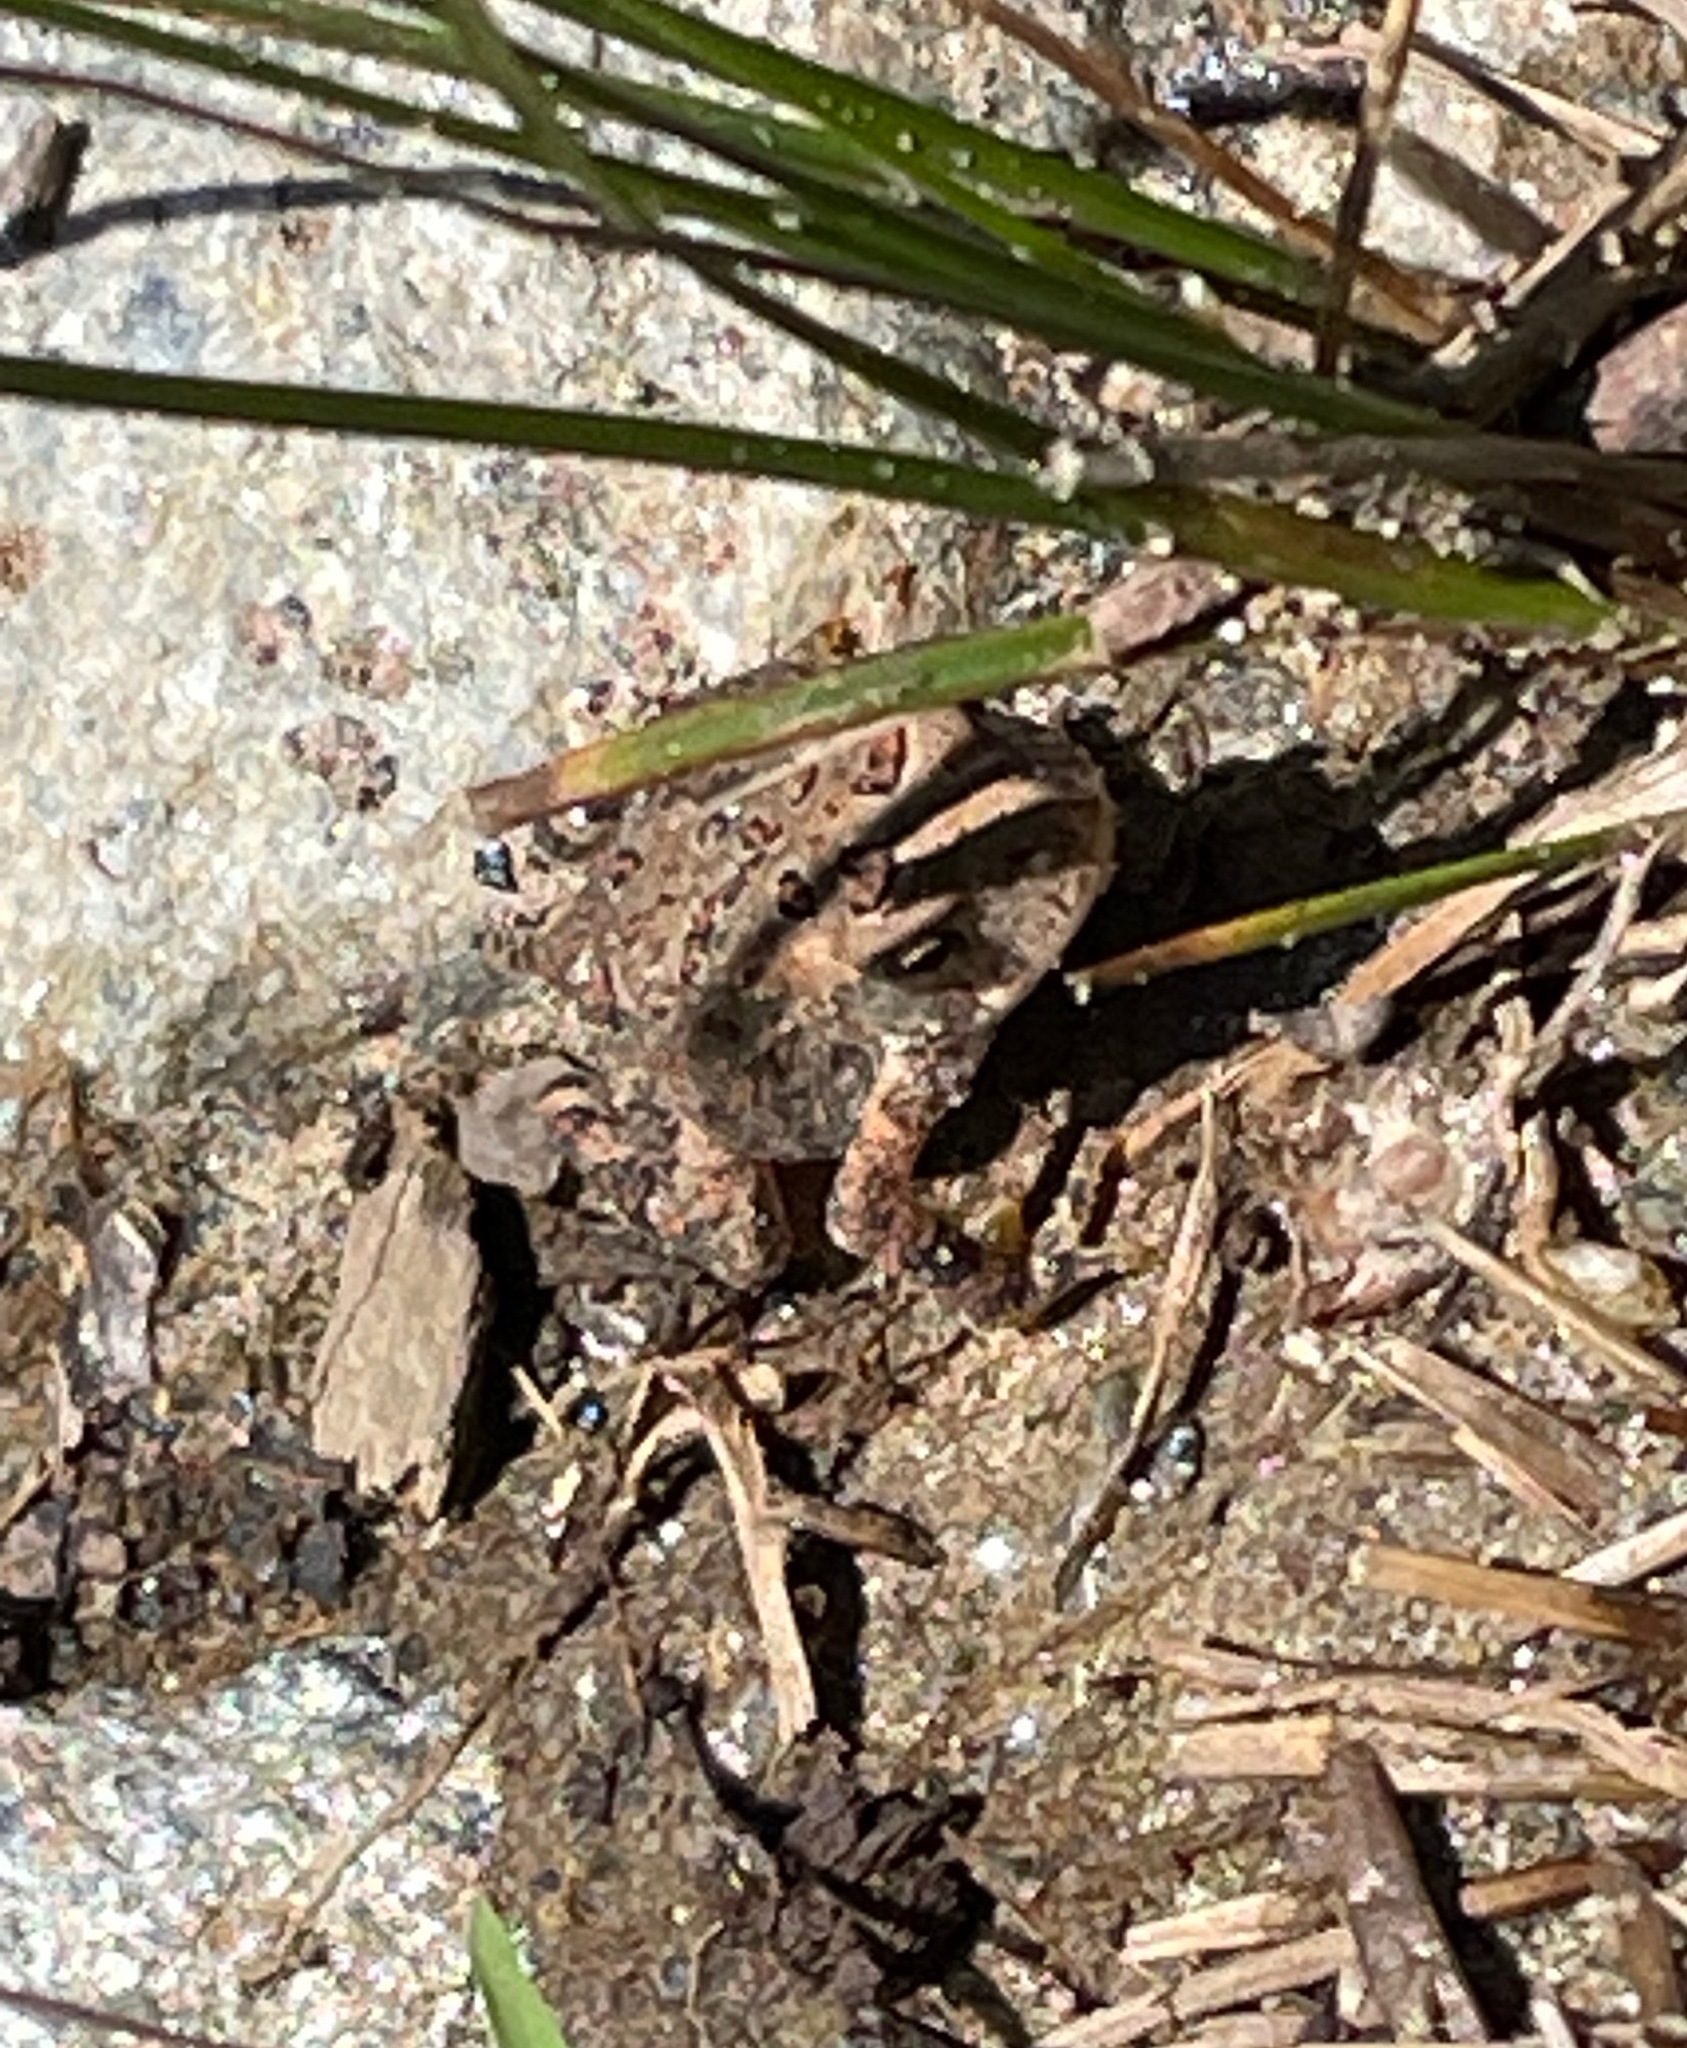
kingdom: Animalia
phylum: Chordata
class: Amphibia
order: Anura
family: Bufonidae
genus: Anaxyrus
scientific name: Anaxyrus americanus
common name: American toad
